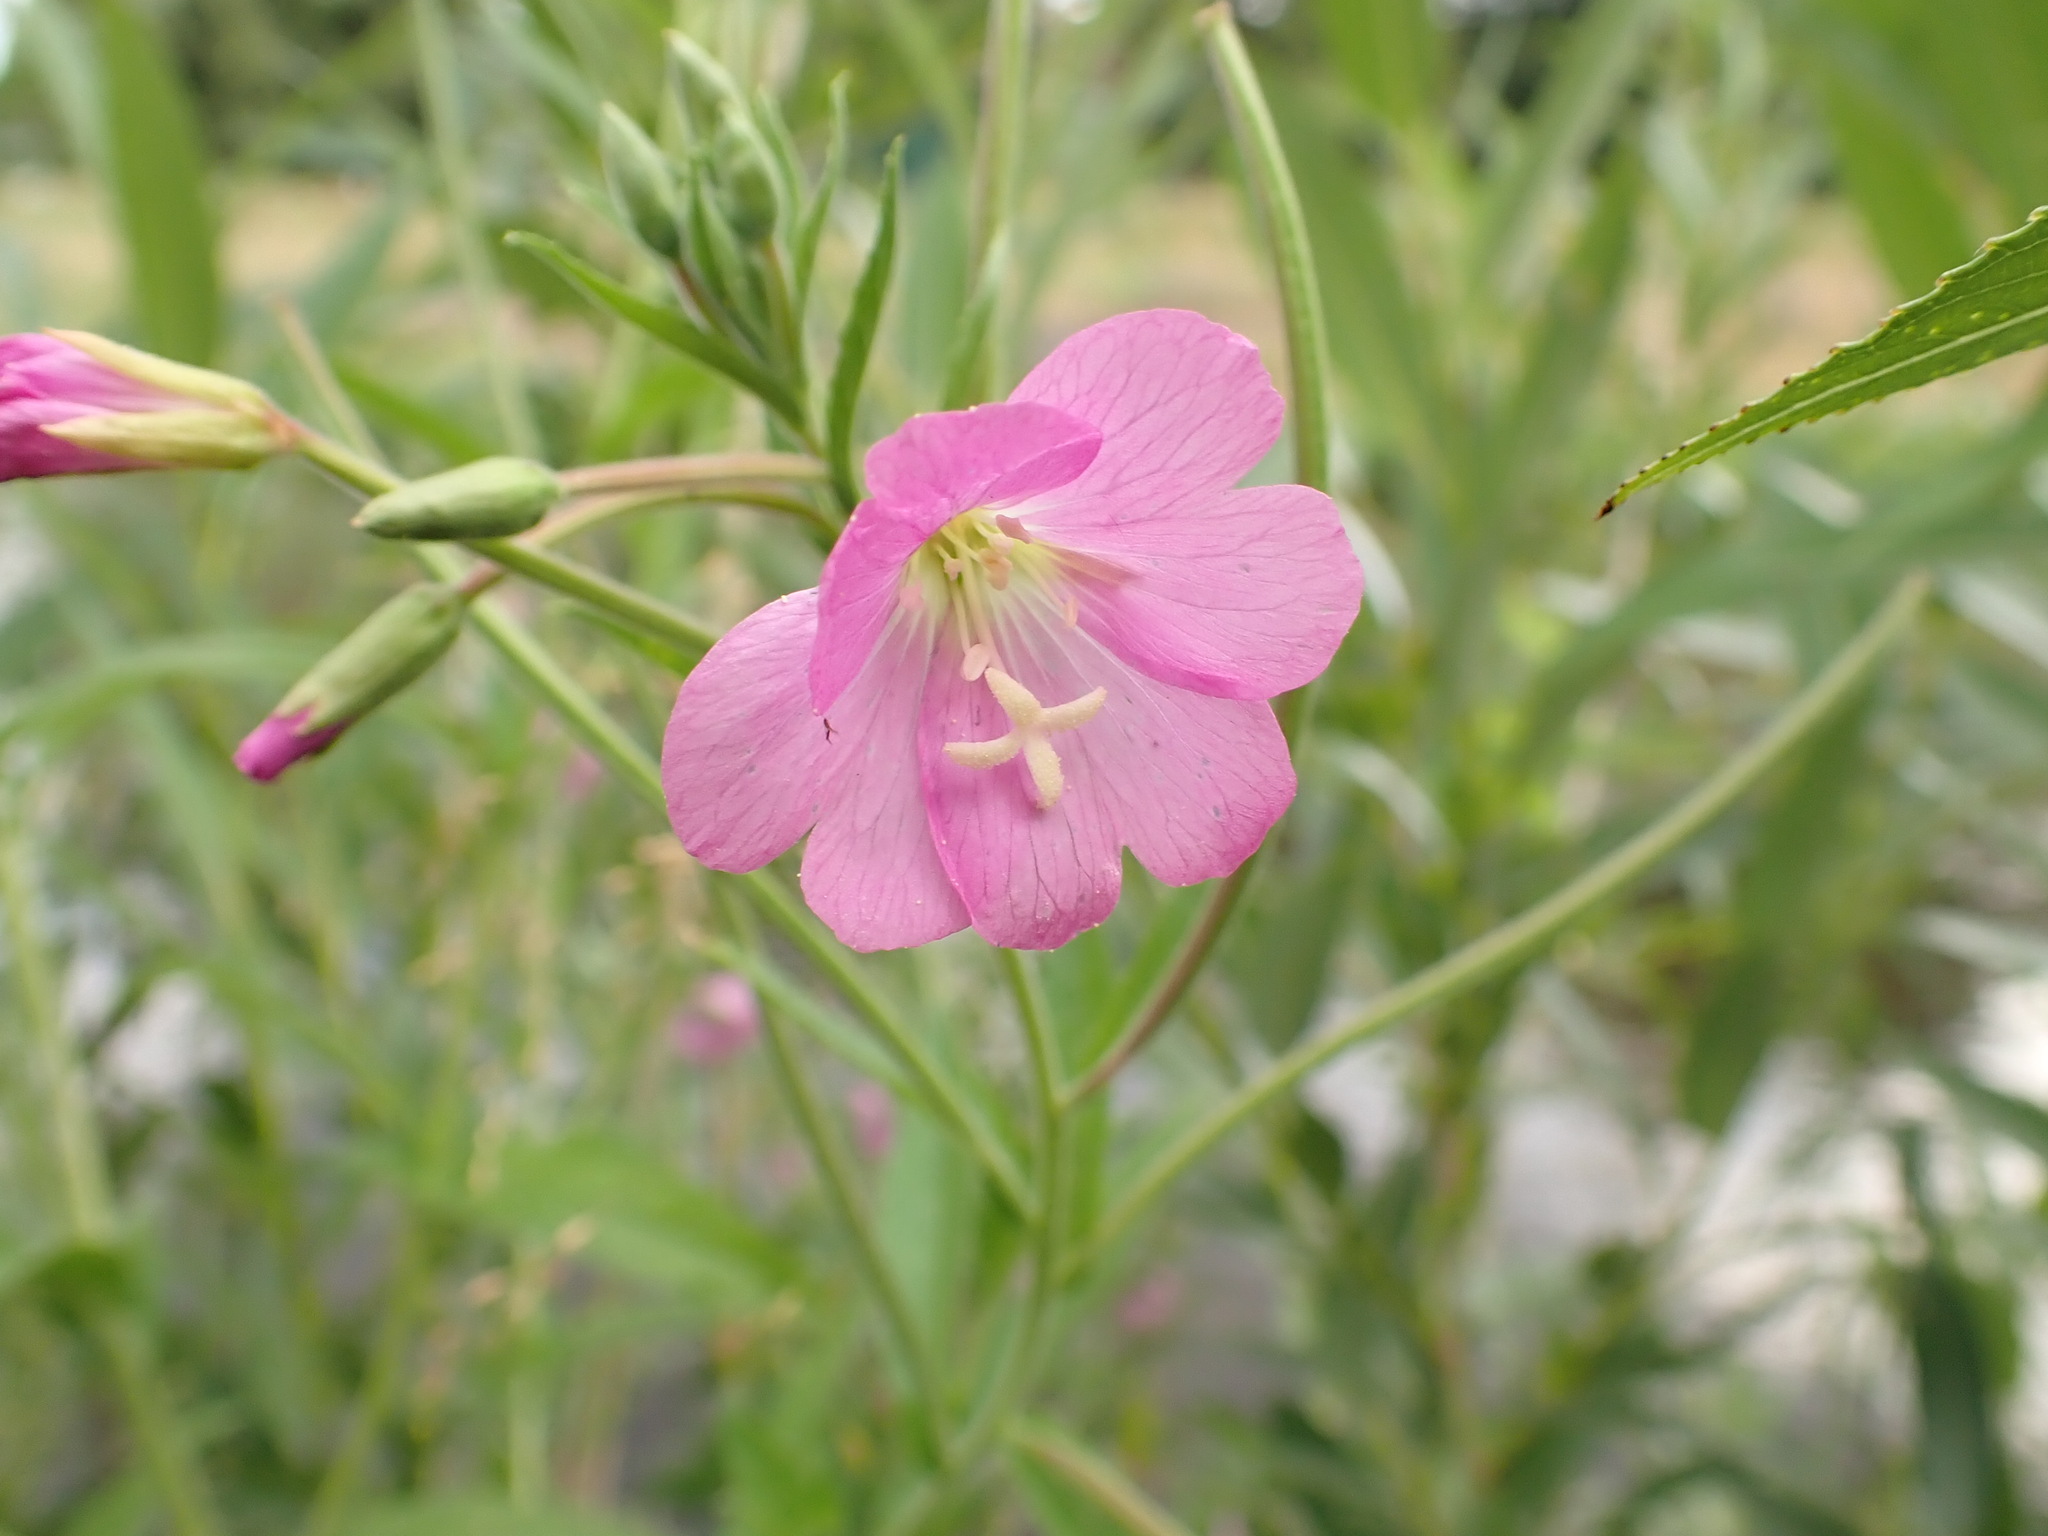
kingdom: Plantae
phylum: Tracheophyta
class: Magnoliopsida
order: Myrtales
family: Onagraceae
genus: Epilobium
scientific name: Epilobium hirsutum
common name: Great willowherb
